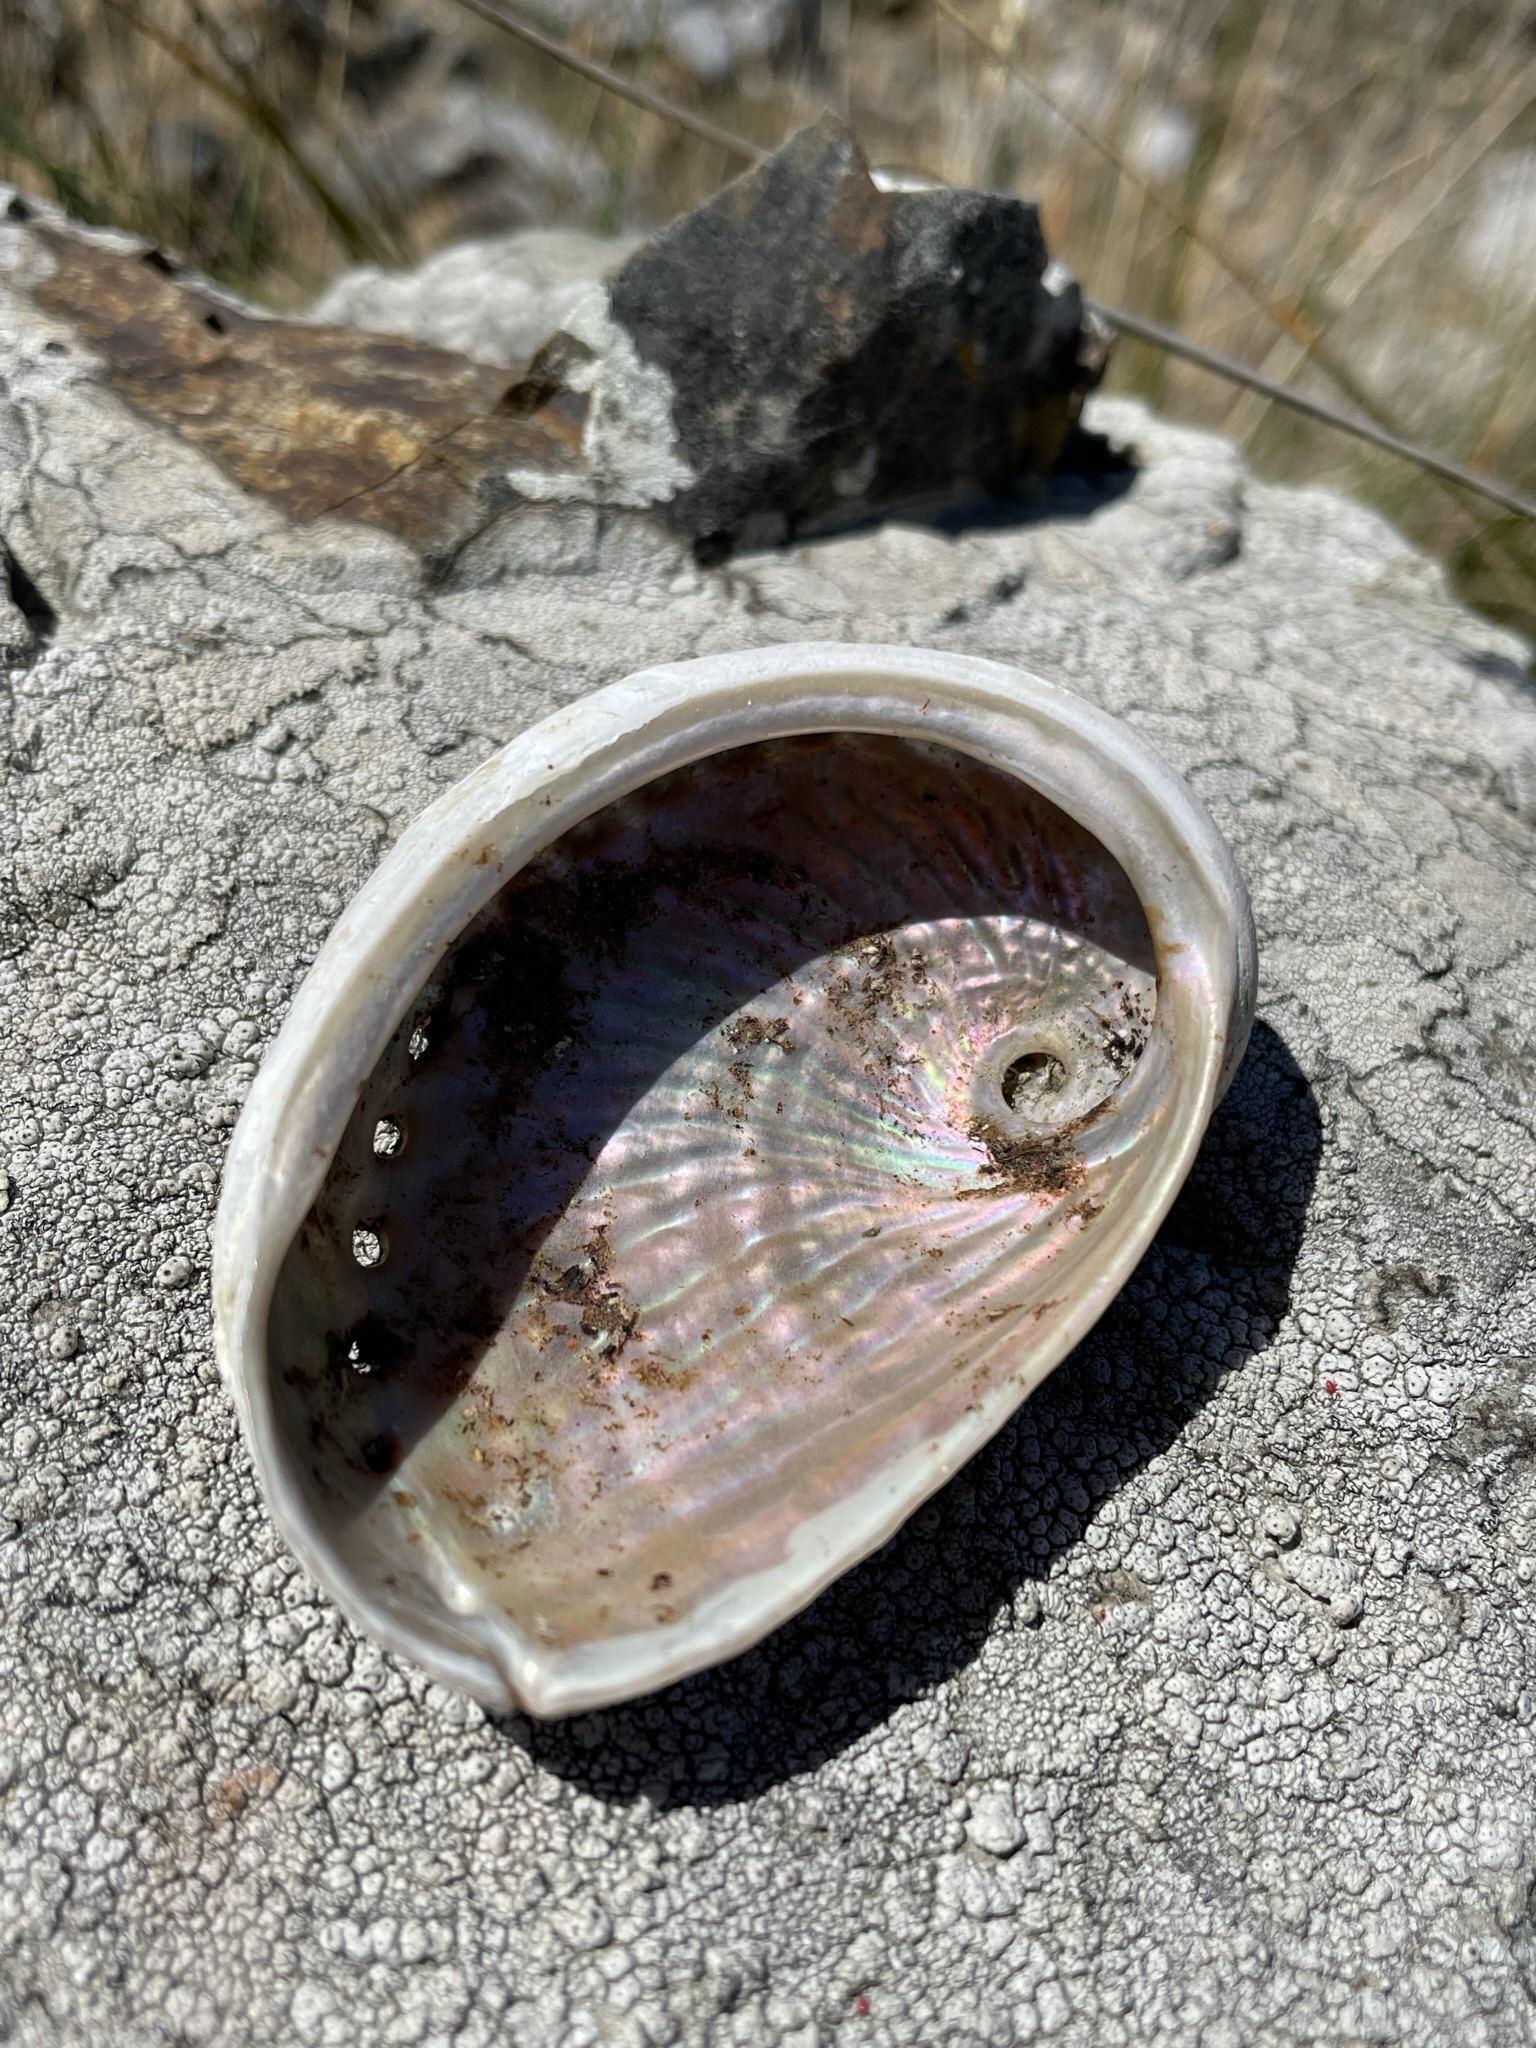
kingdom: Animalia
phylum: Mollusca
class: Gastropoda
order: Lepetellida
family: Haliotidae
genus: Haliotis
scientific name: Haliotis australis
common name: Silver abalone
